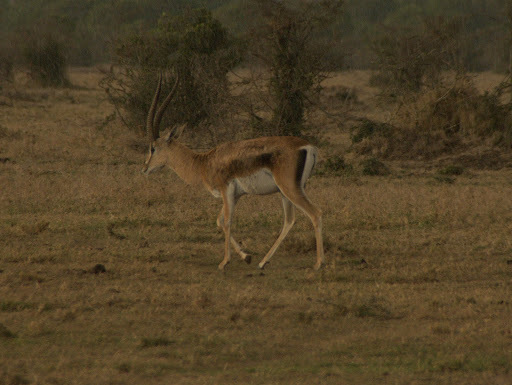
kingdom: Animalia
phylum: Chordata
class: Mammalia
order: Artiodactyla
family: Bovidae
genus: Nanger
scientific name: Nanger granti
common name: Grant's gazelle
